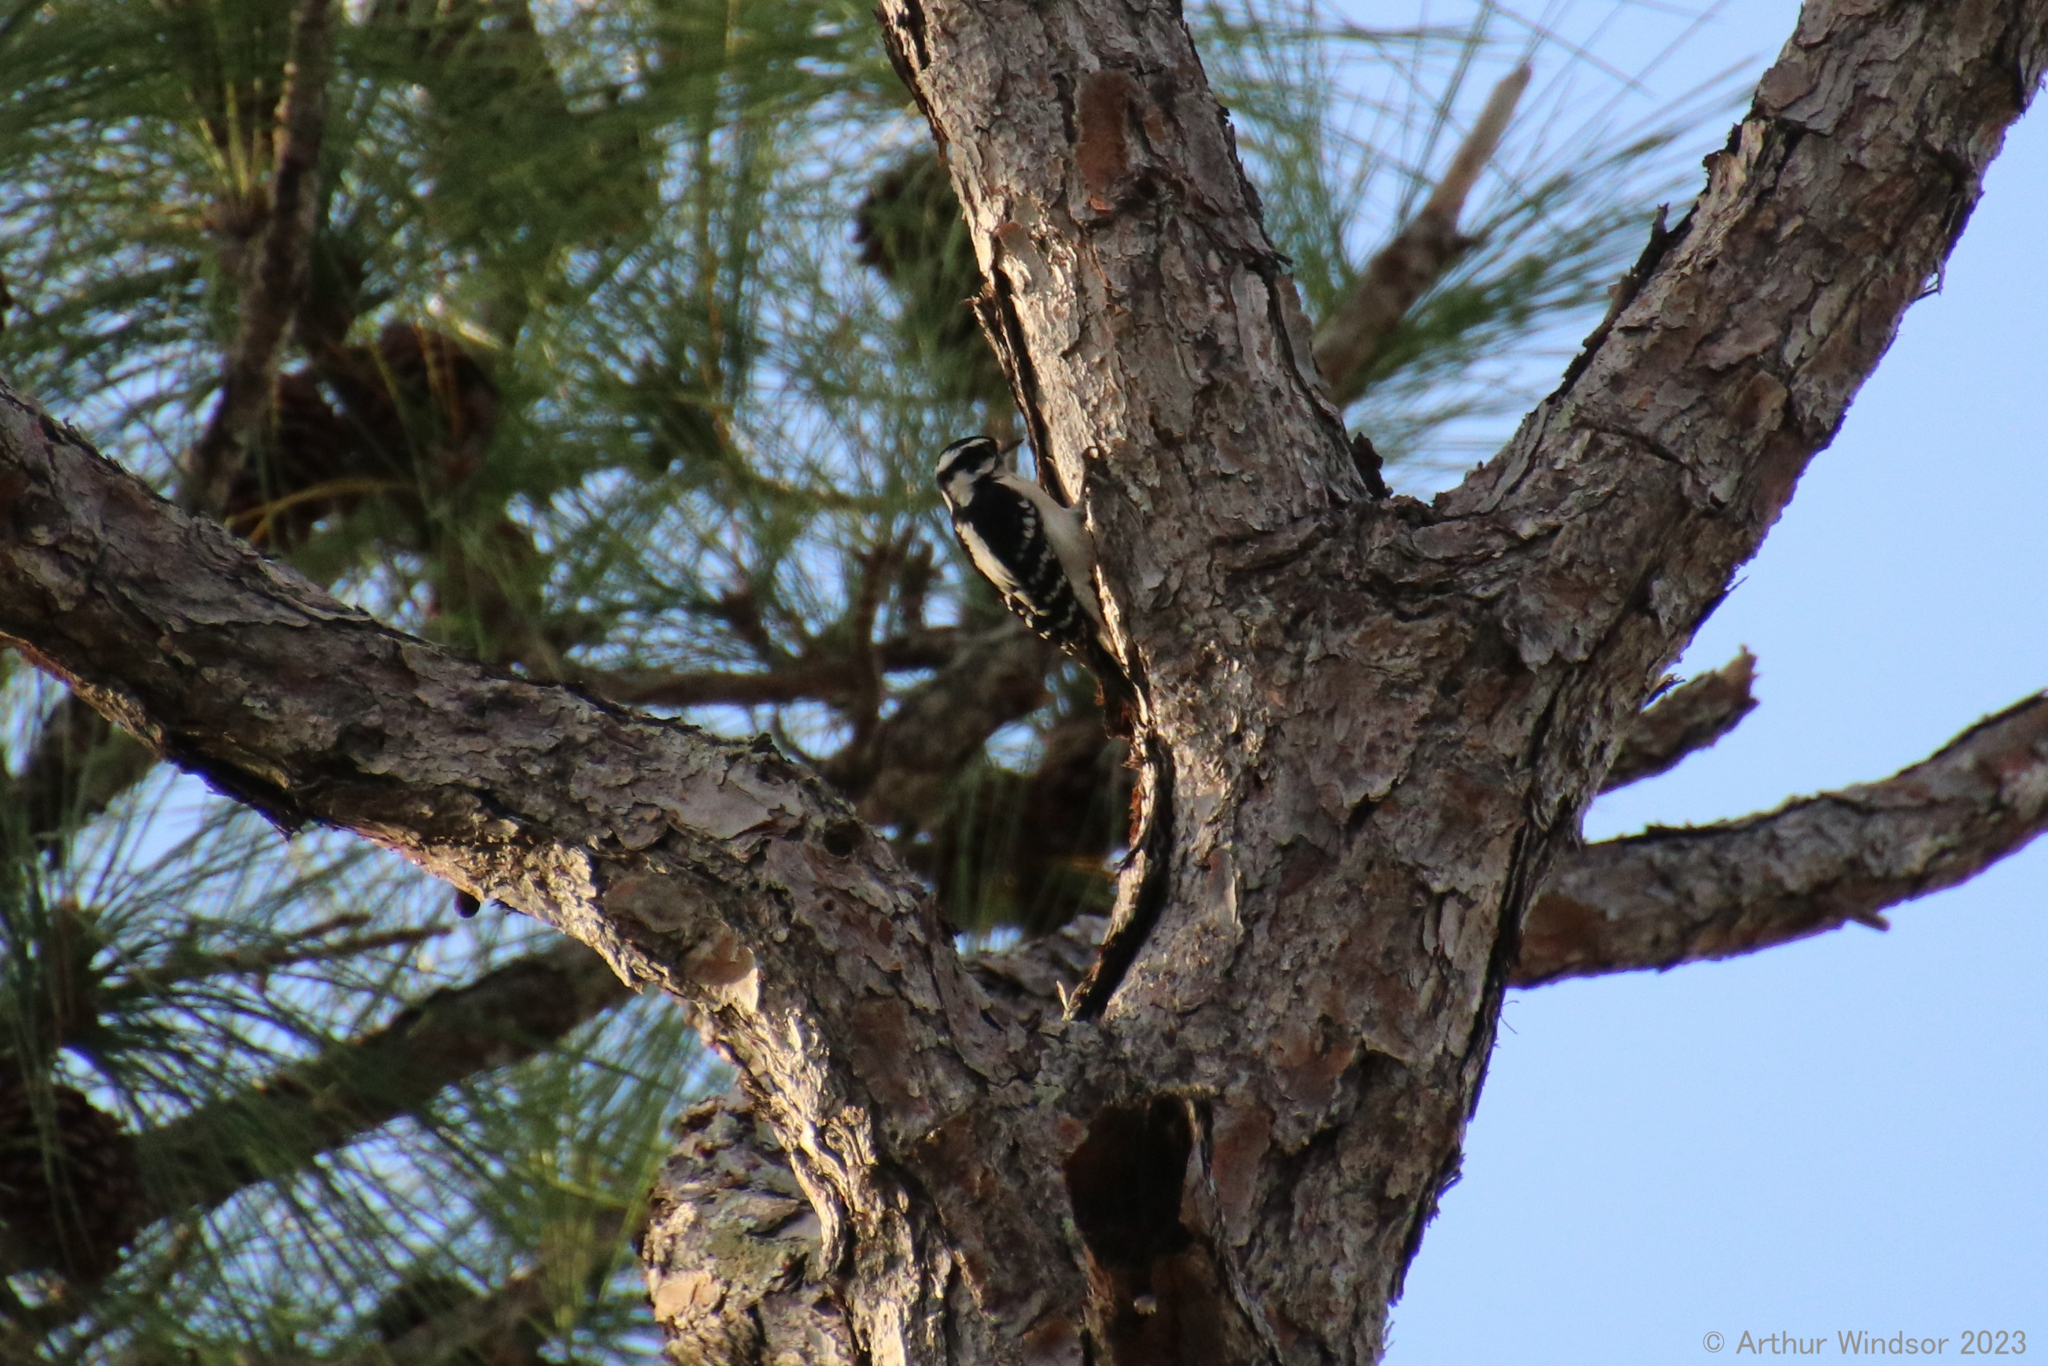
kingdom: Animalia
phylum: Chordata
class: Aves
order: Piciformes
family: Picidae
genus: Dryobates
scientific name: Dryobates pubescens
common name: Downy woodpecker
